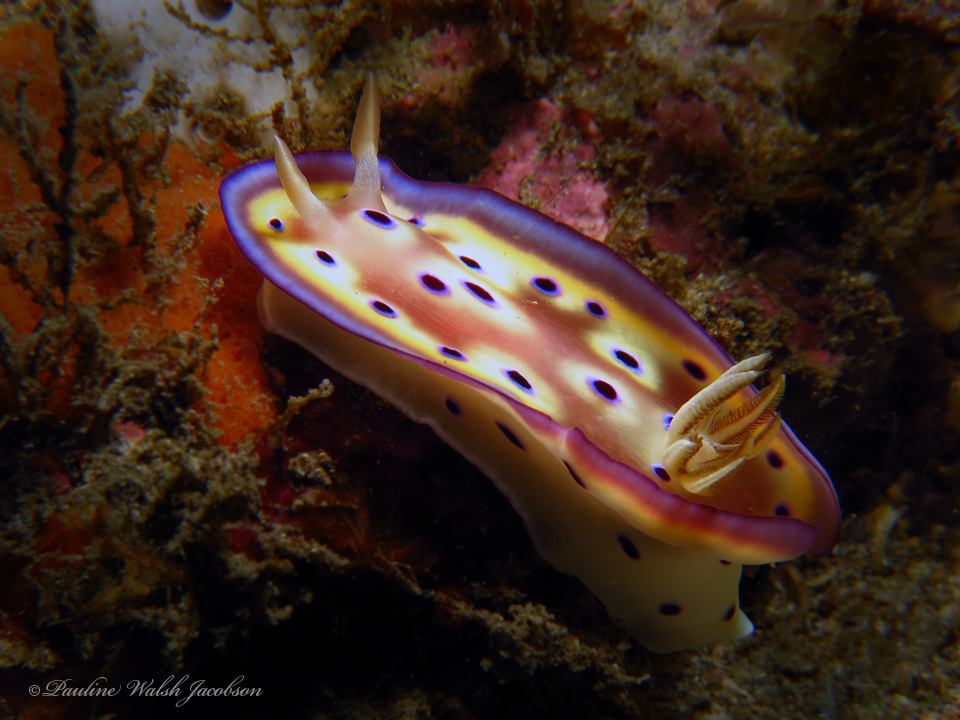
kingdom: Animalia
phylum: Mollusca
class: Gastropoda
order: Nudibranchia
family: Chromodorididae
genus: Goniobranchus
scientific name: Goniobranchus kuniei
